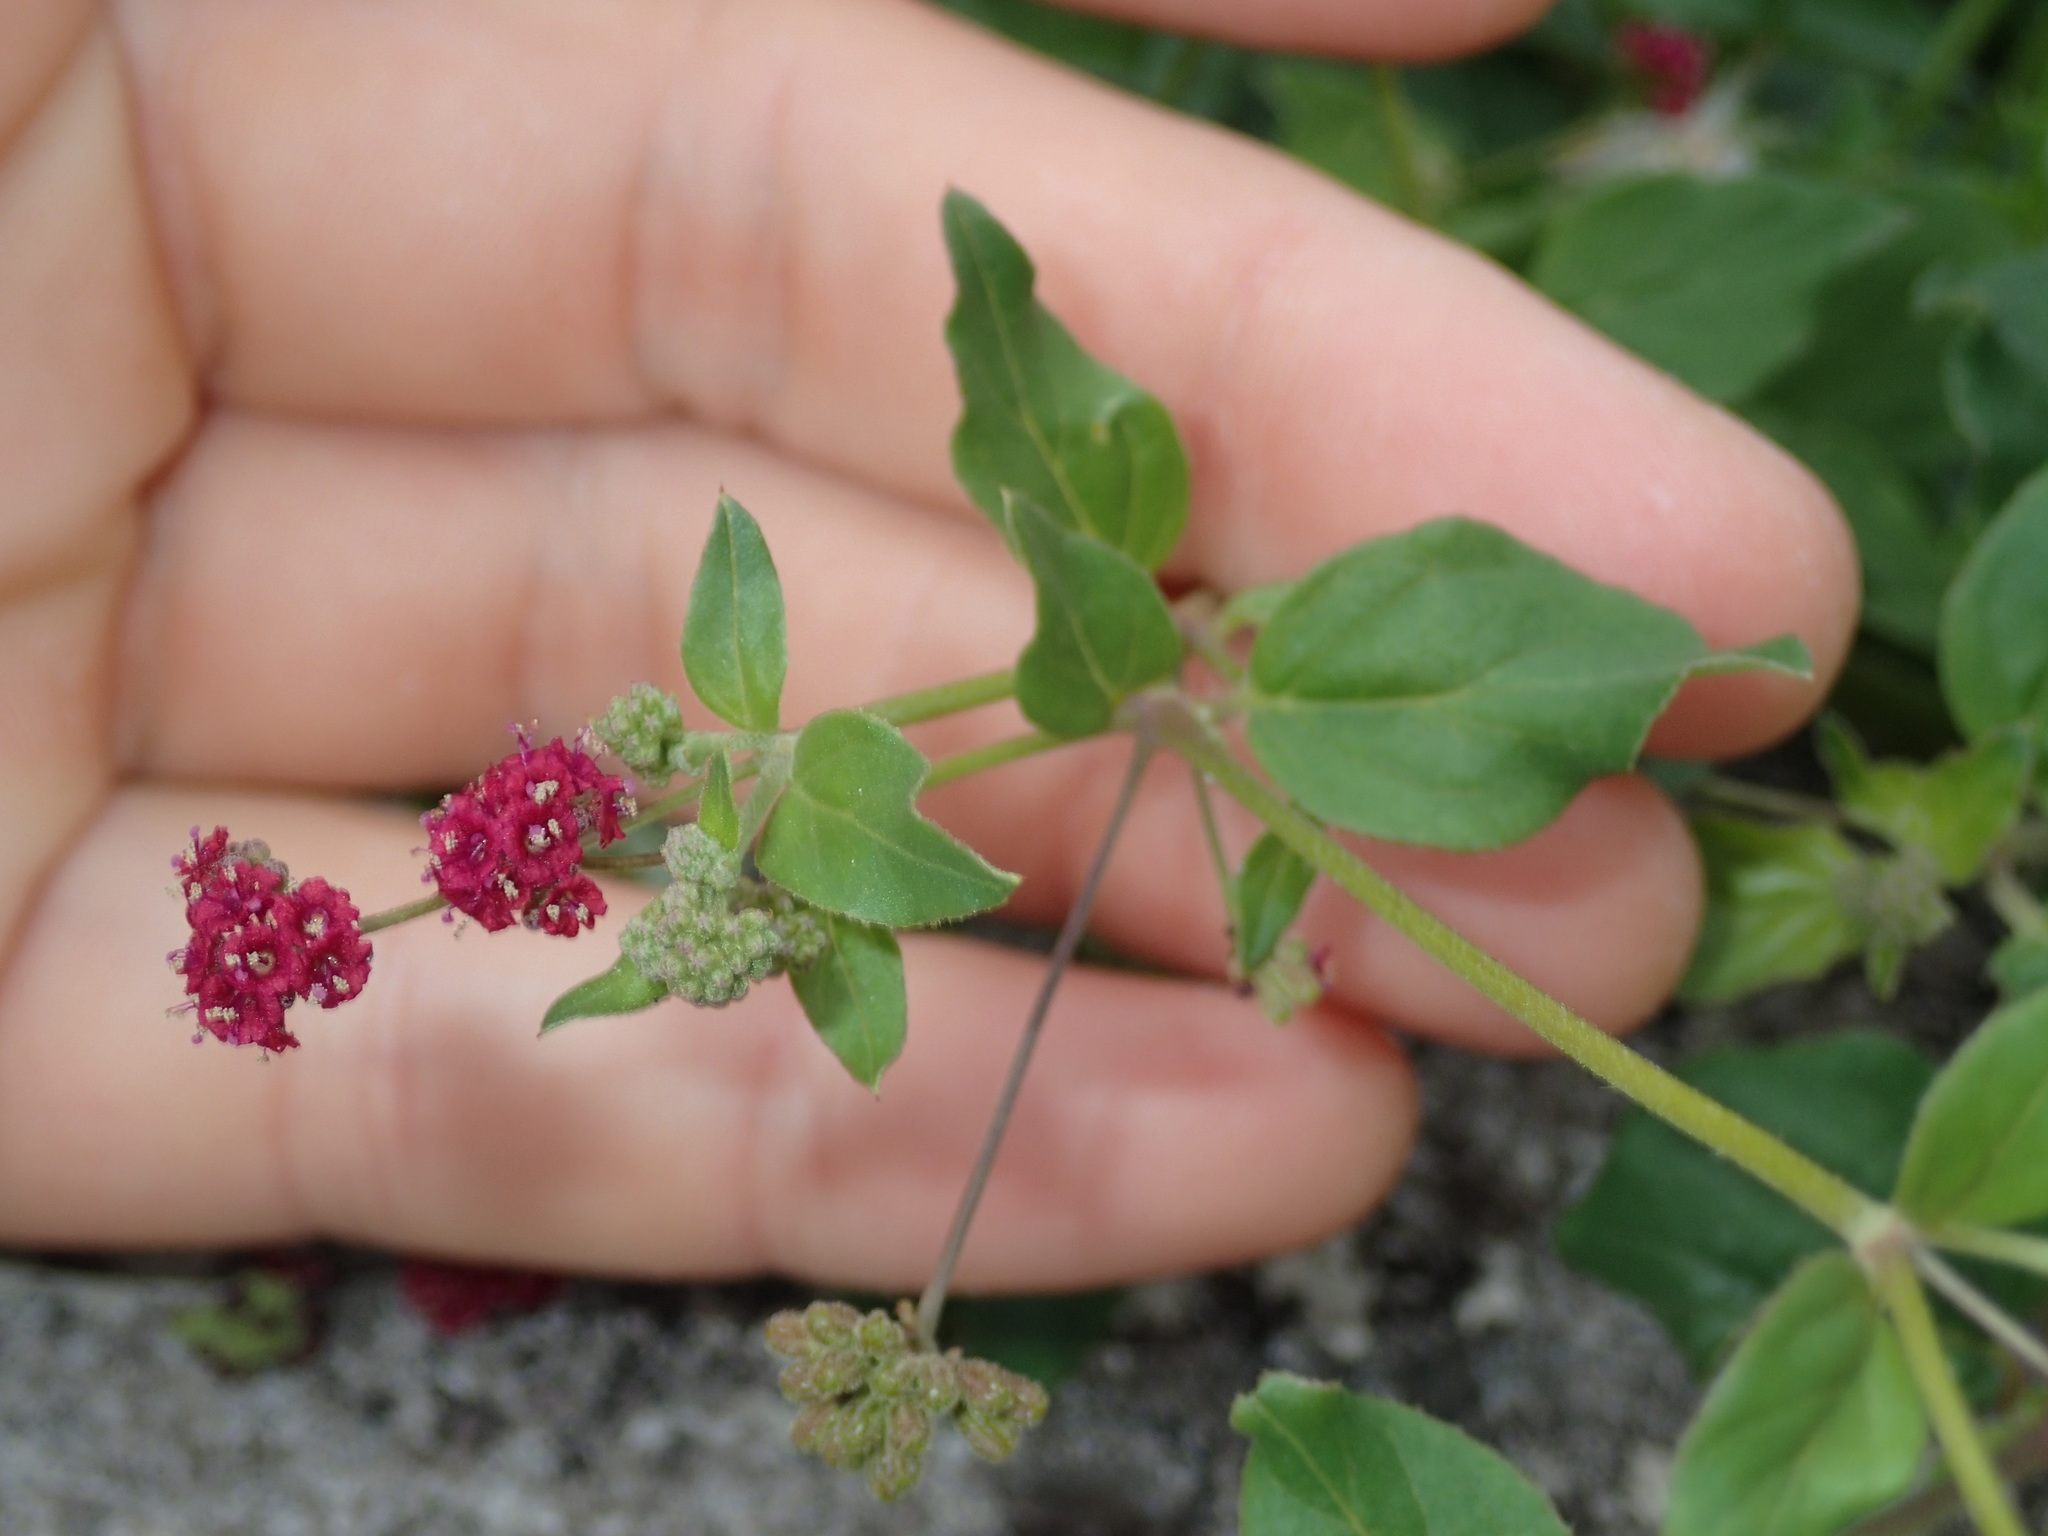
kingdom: Plantae
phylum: Tracheophyta
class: Magnoliopsida
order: Caryophyllales
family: Nyctaginaceae
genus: Boerhavia
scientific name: Boerhavia coccinea
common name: Scarlet spiderling
